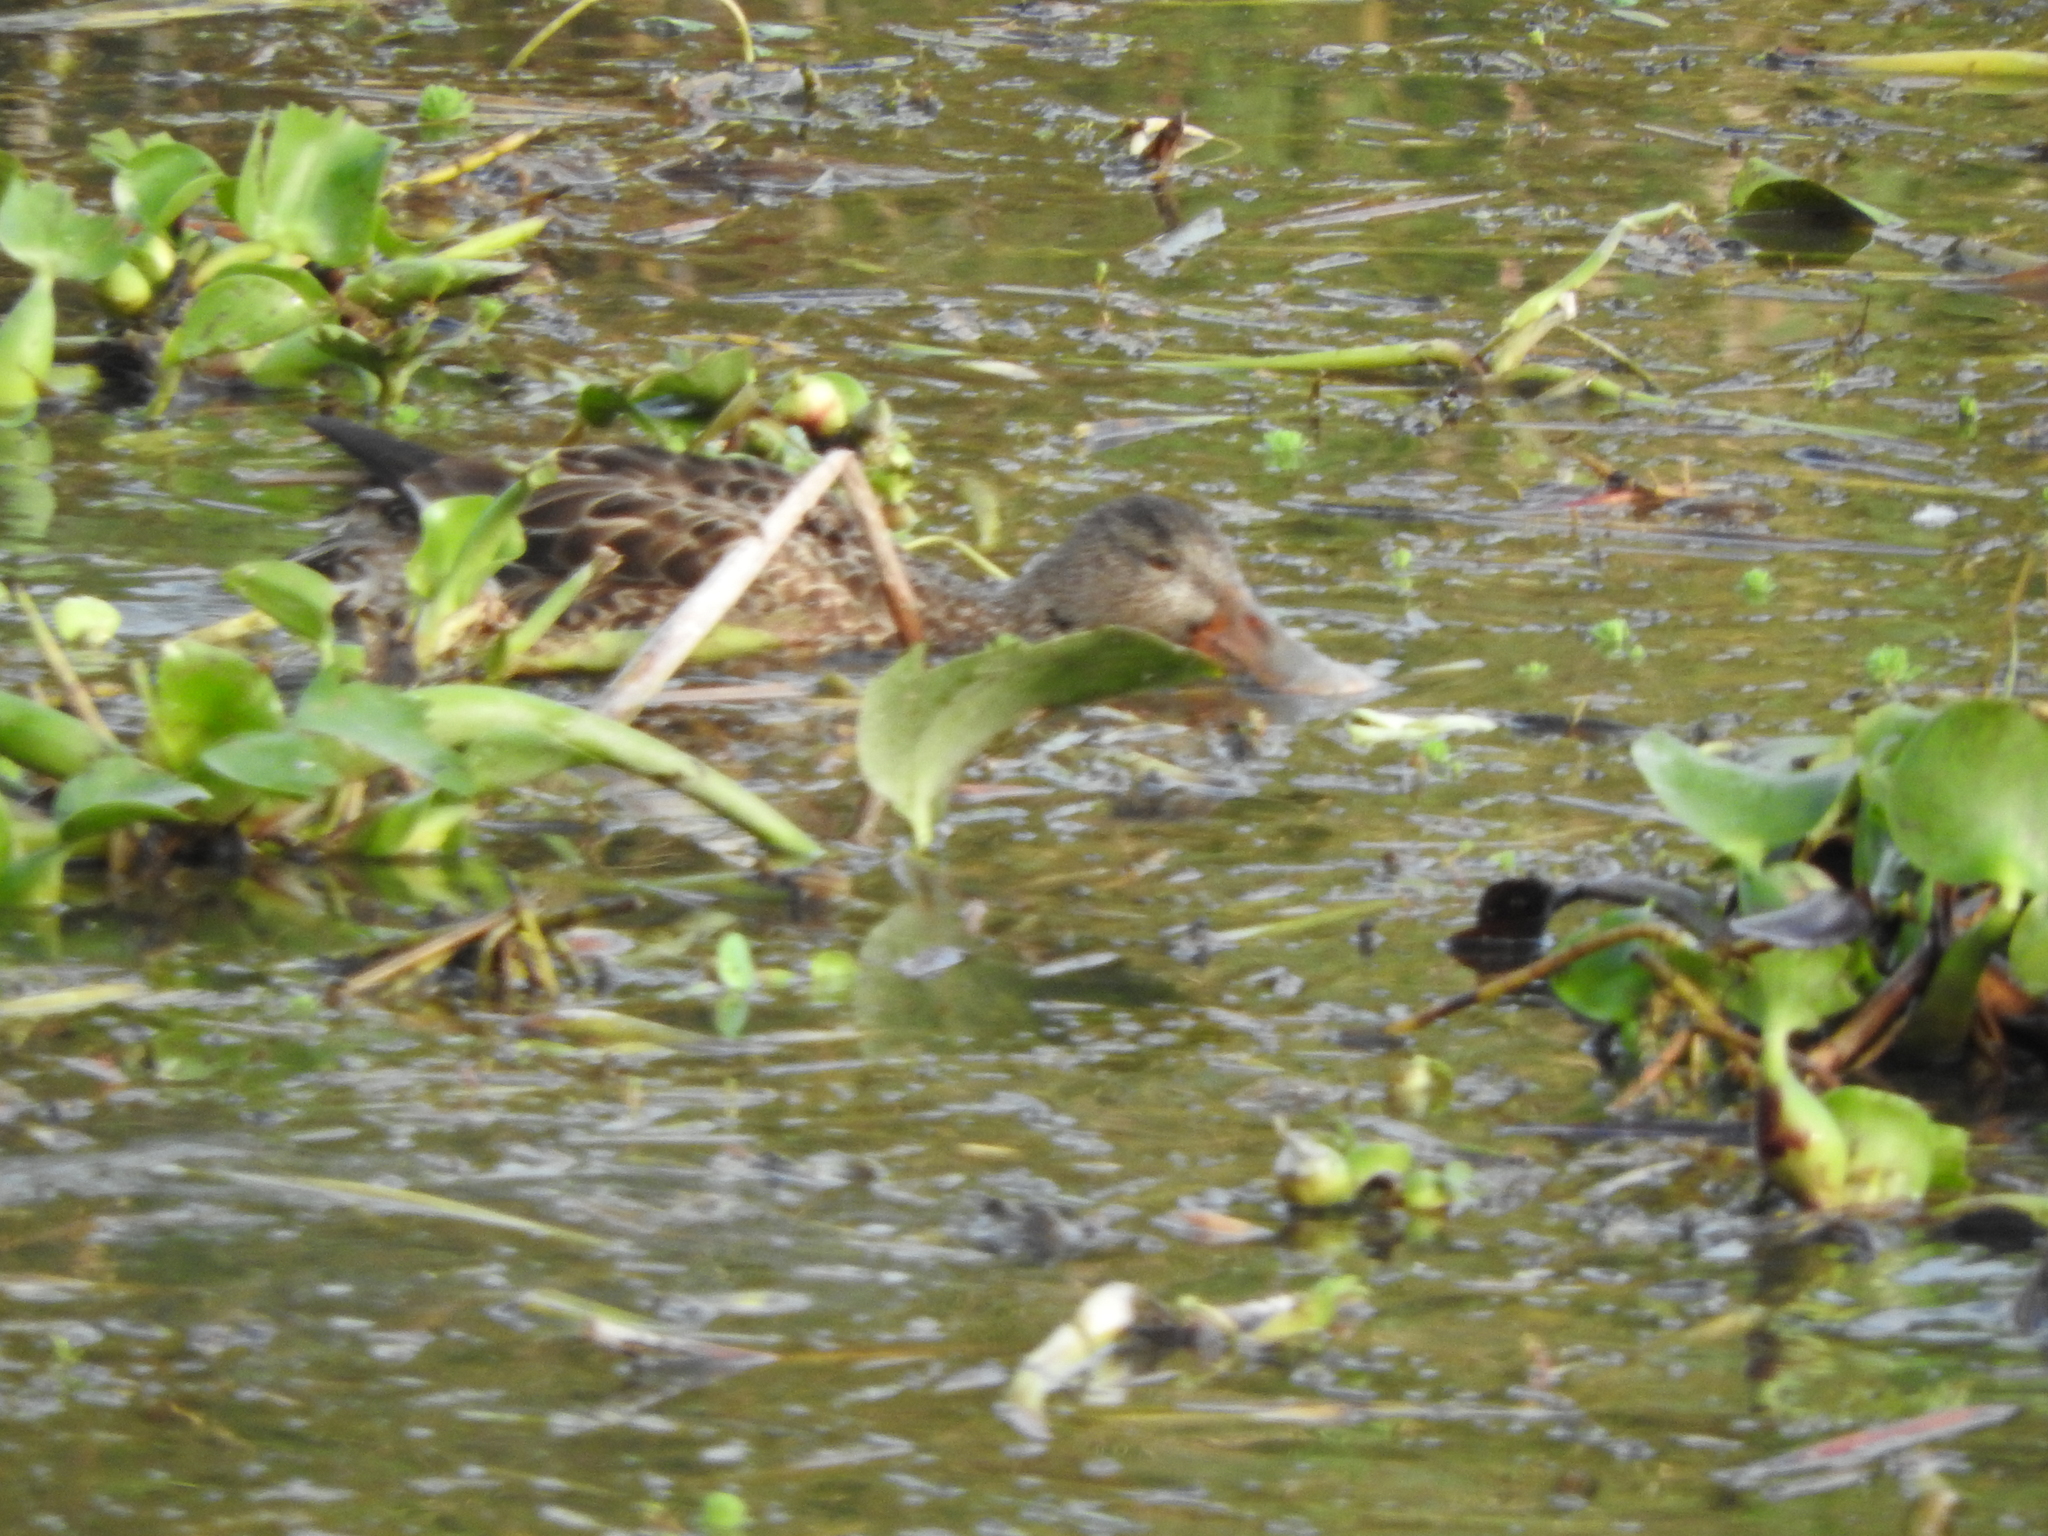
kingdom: Animalia
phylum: Chordata
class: Aves
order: Anseriformes
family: Anatidae
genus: Spatula
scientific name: Spatula clypeata
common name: Northern shoveler
